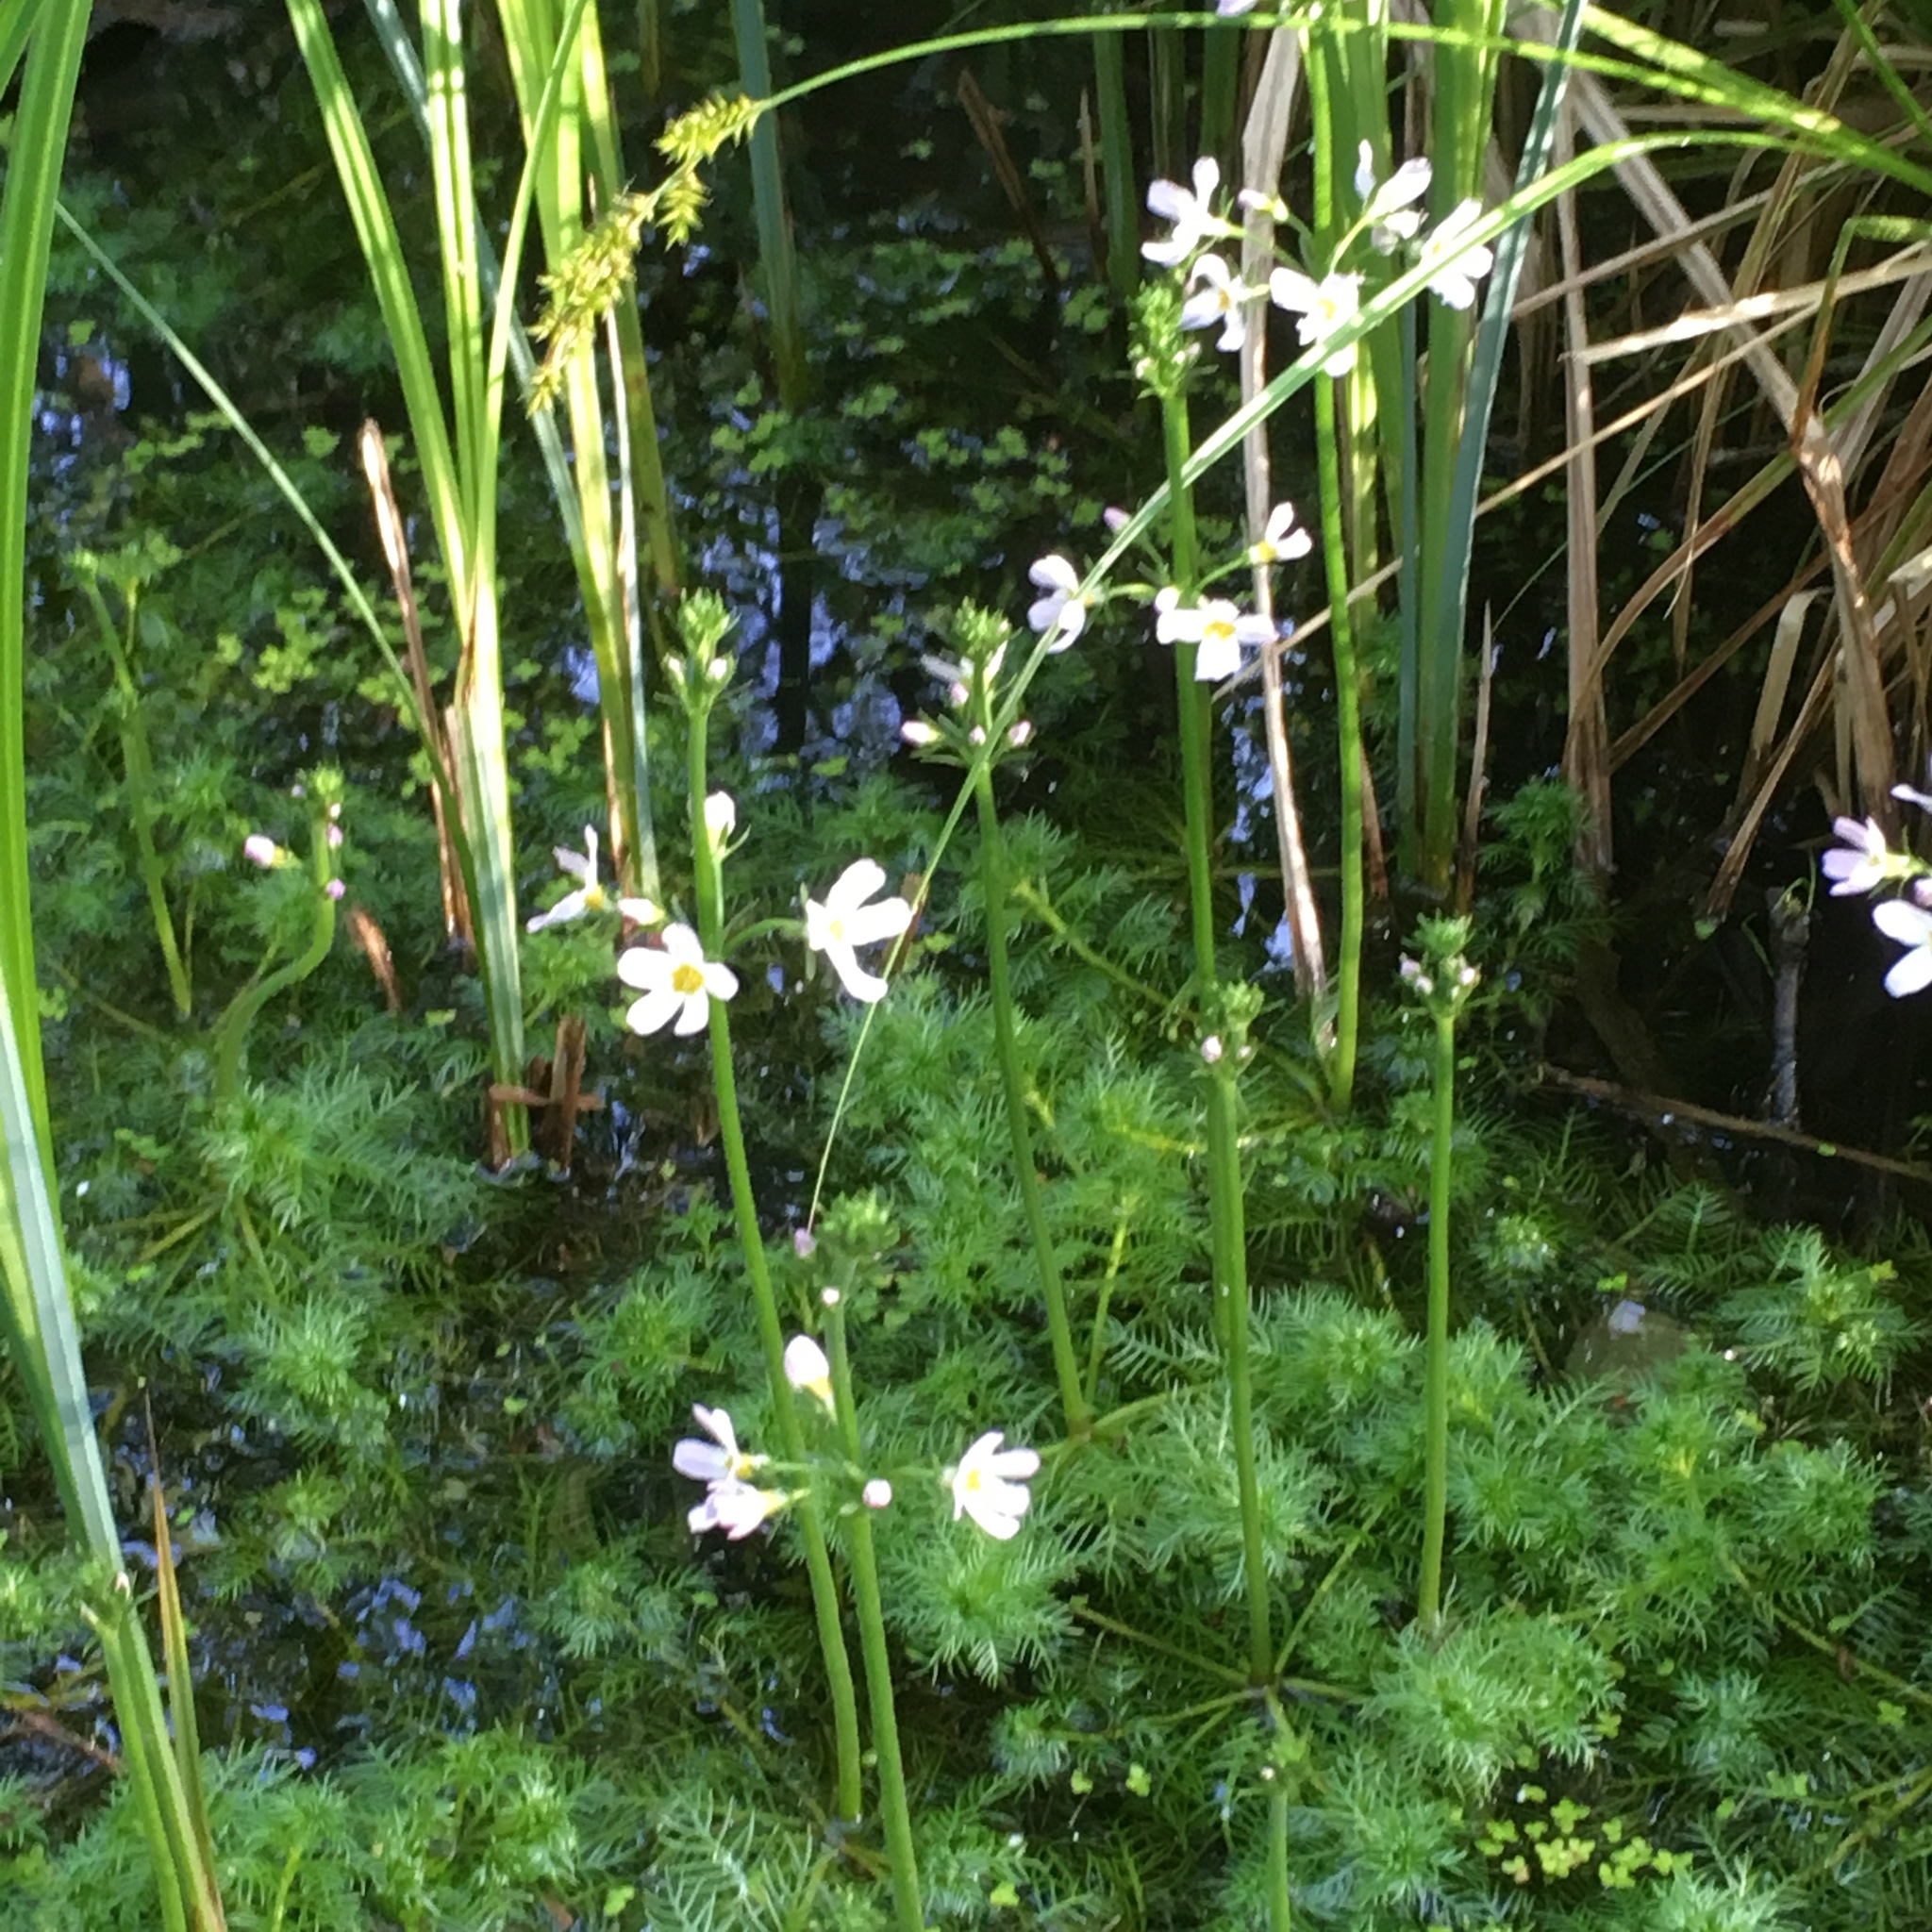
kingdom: Plantae
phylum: Tracheophyta
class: Magnoliopsida
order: Ericales
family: Primulaceae
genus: Hottonia
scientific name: Hottonia palustris
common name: Water-violet
